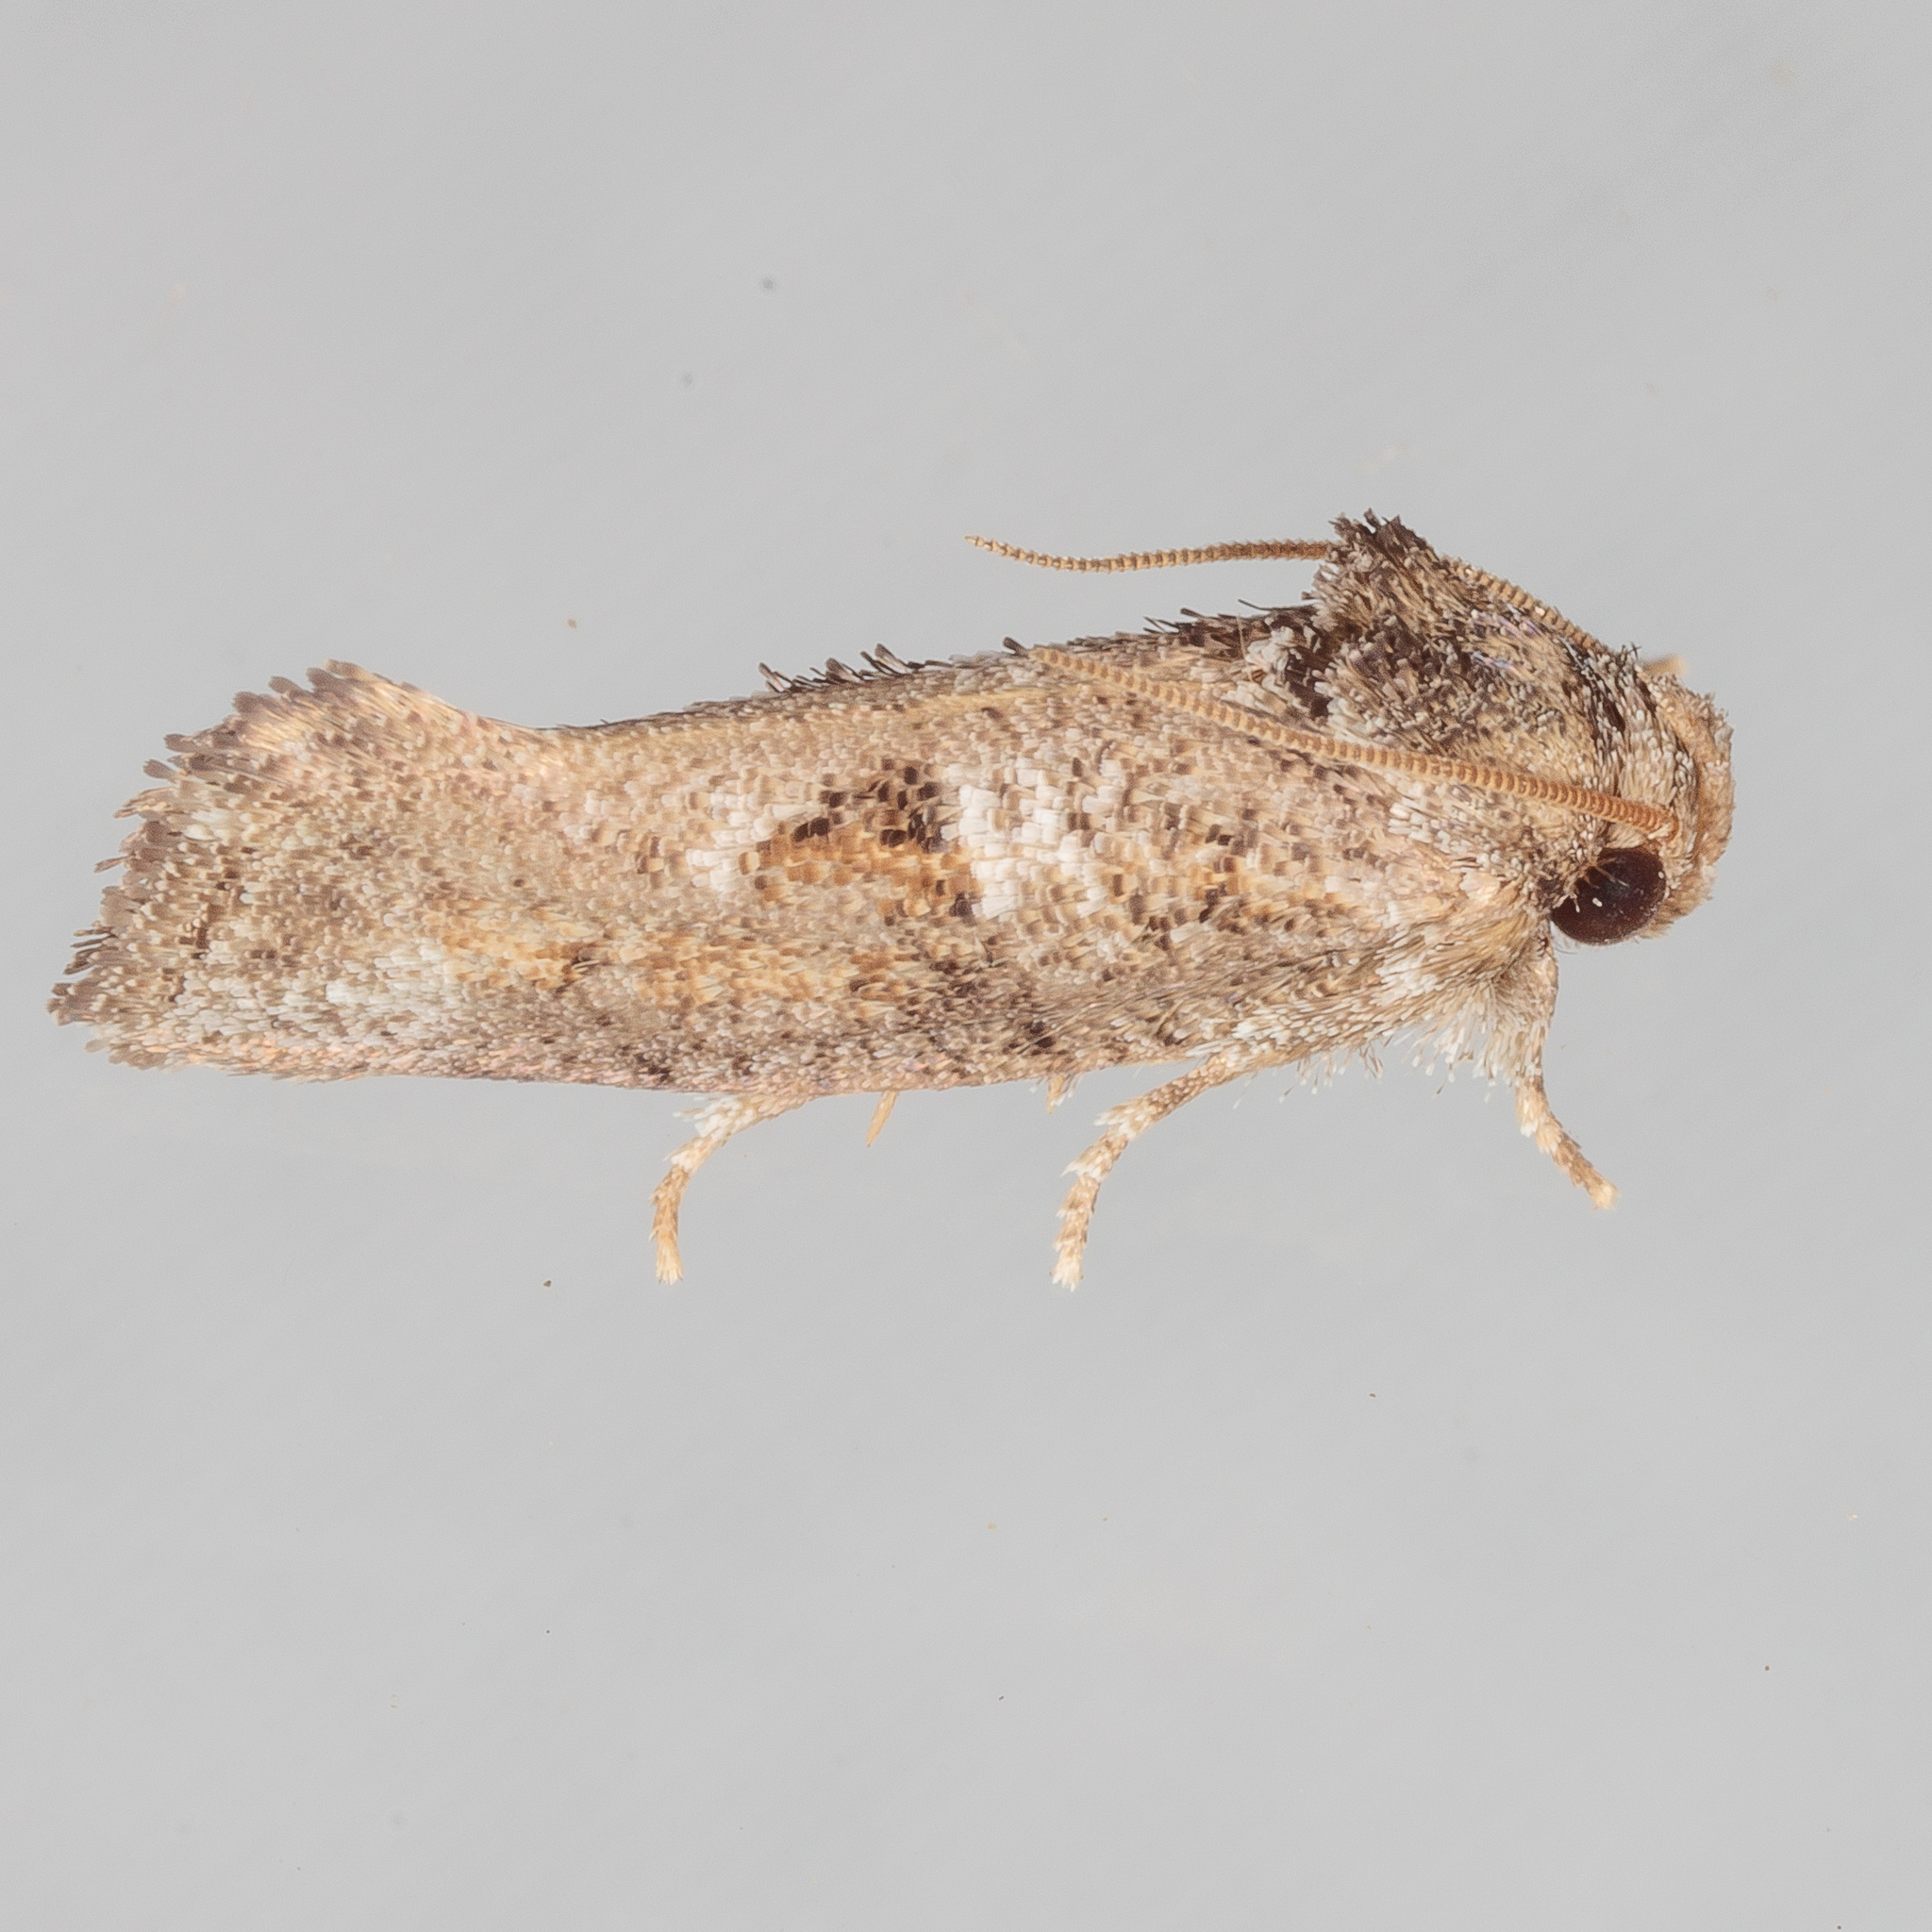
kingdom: Animalia
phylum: Arthropoda
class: Insecta
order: Lepidoptera
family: Tineidae
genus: Acrolophus
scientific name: Acrolophus piger
